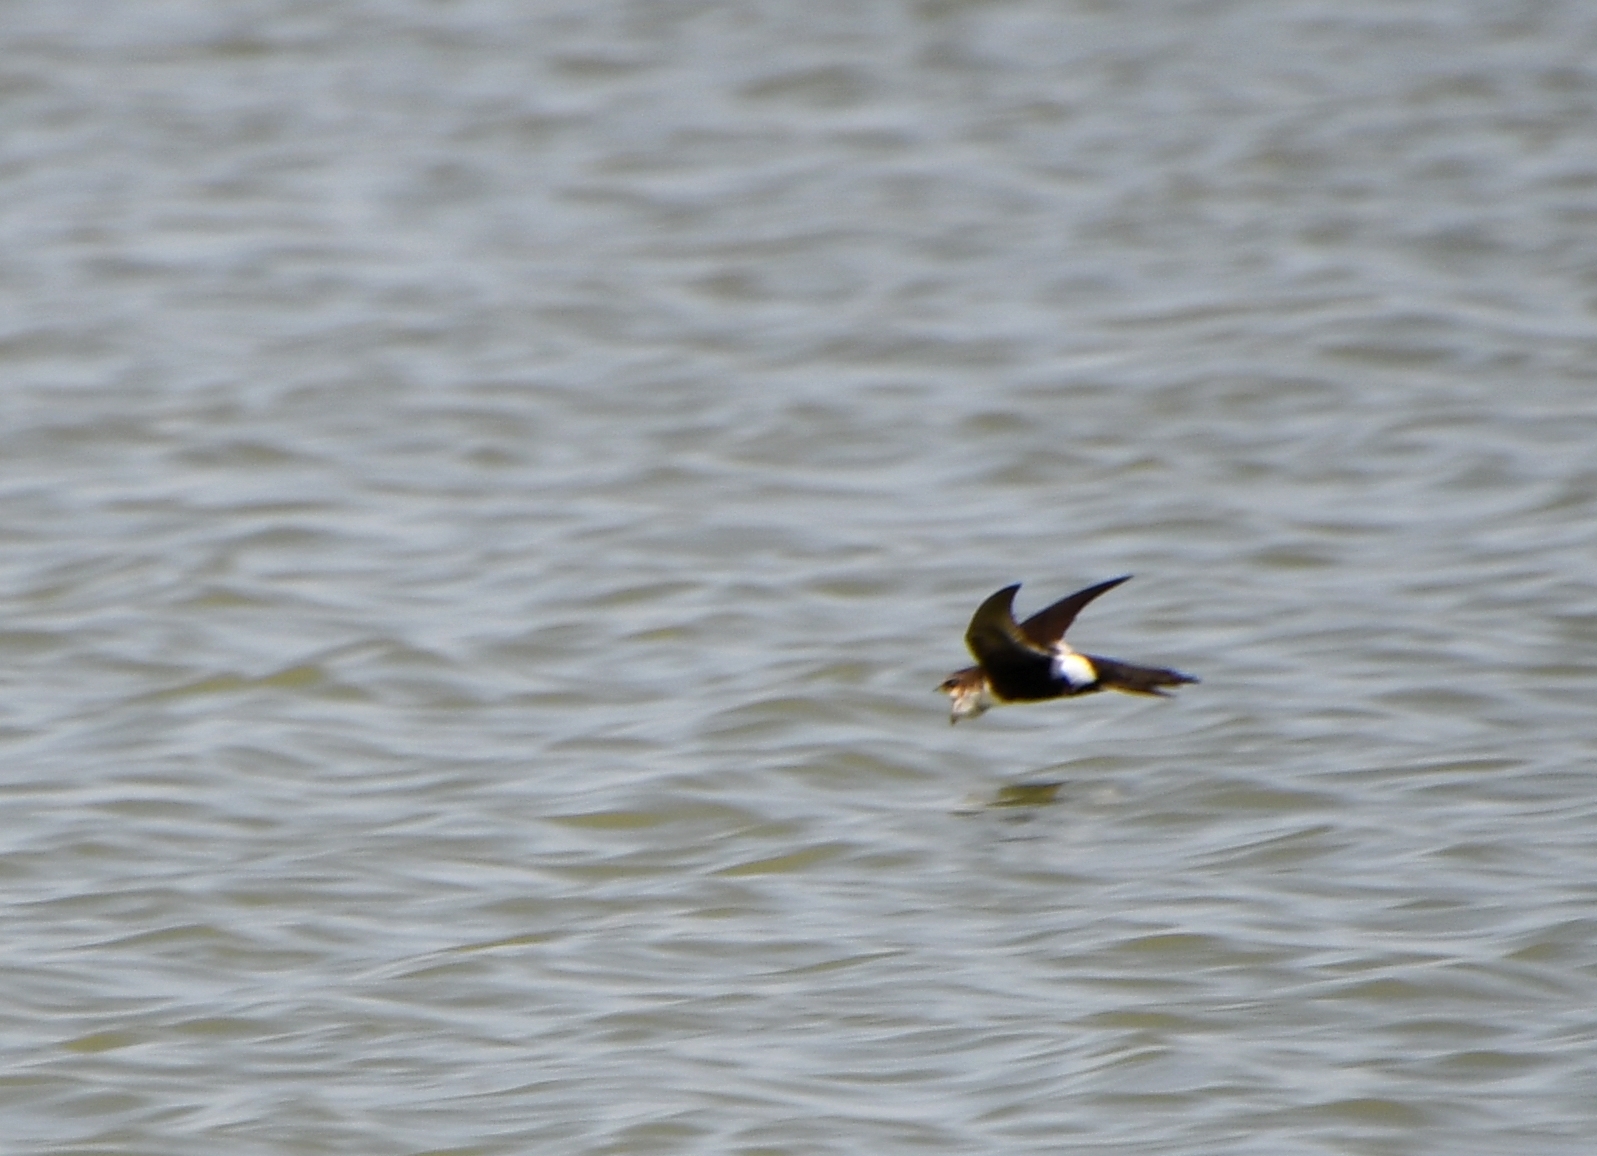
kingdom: Animalia
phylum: Chordata
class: Aves
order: Apodiformes
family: Apodidae
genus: Aeronautes
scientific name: Aeronautes saxatalis
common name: White-throated swift
